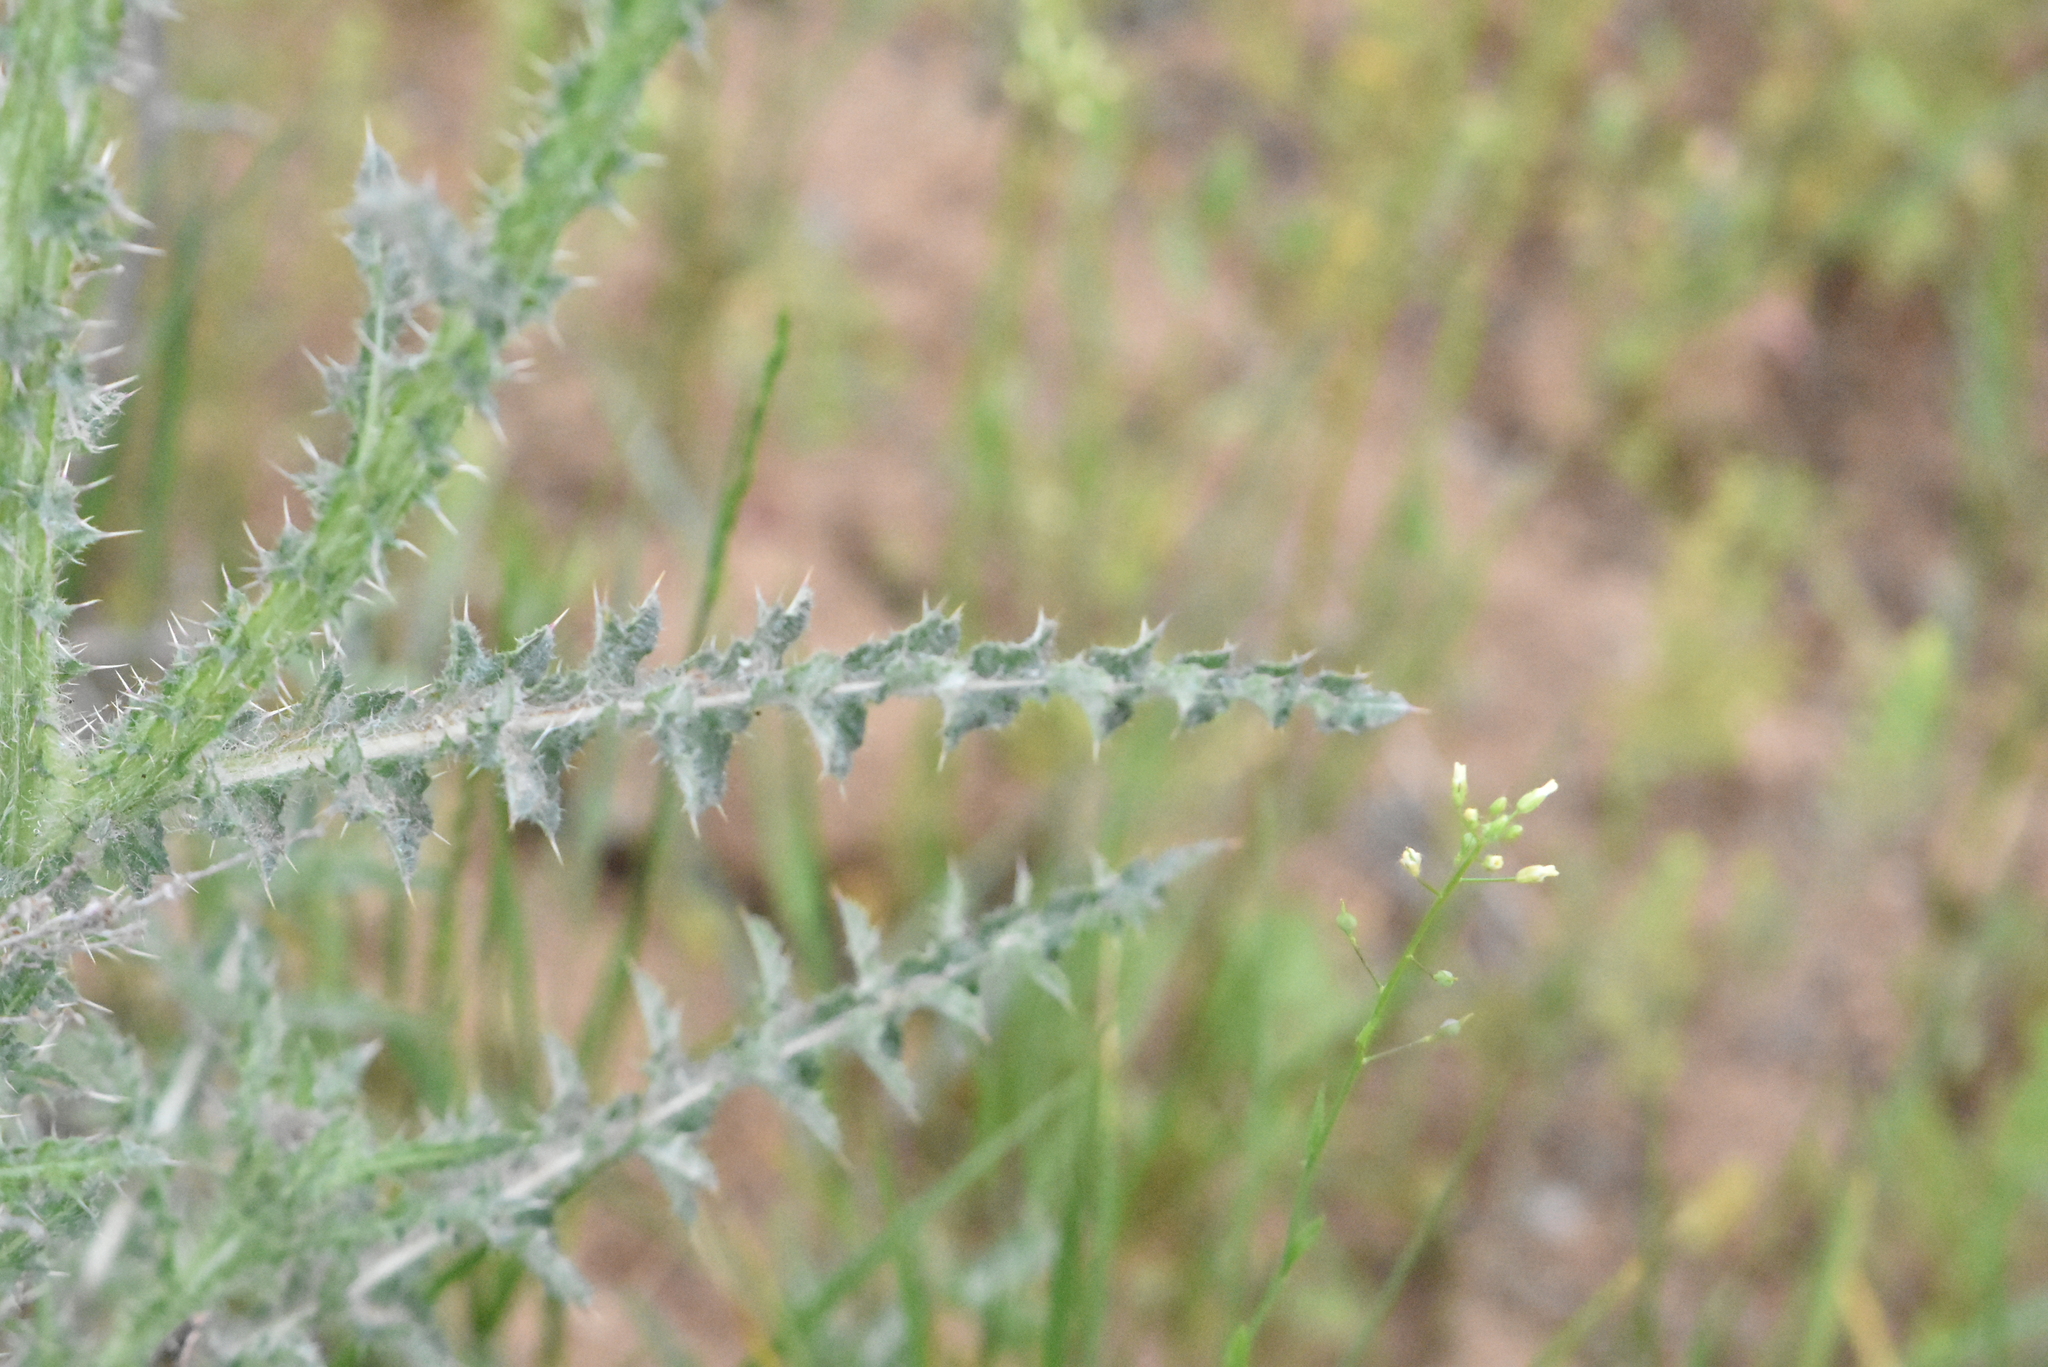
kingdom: Plantae
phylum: Tracheophyta
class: Magnoliopsida
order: Asterales
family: Asteraceae
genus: Carduus
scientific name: Carduus uncinatus
